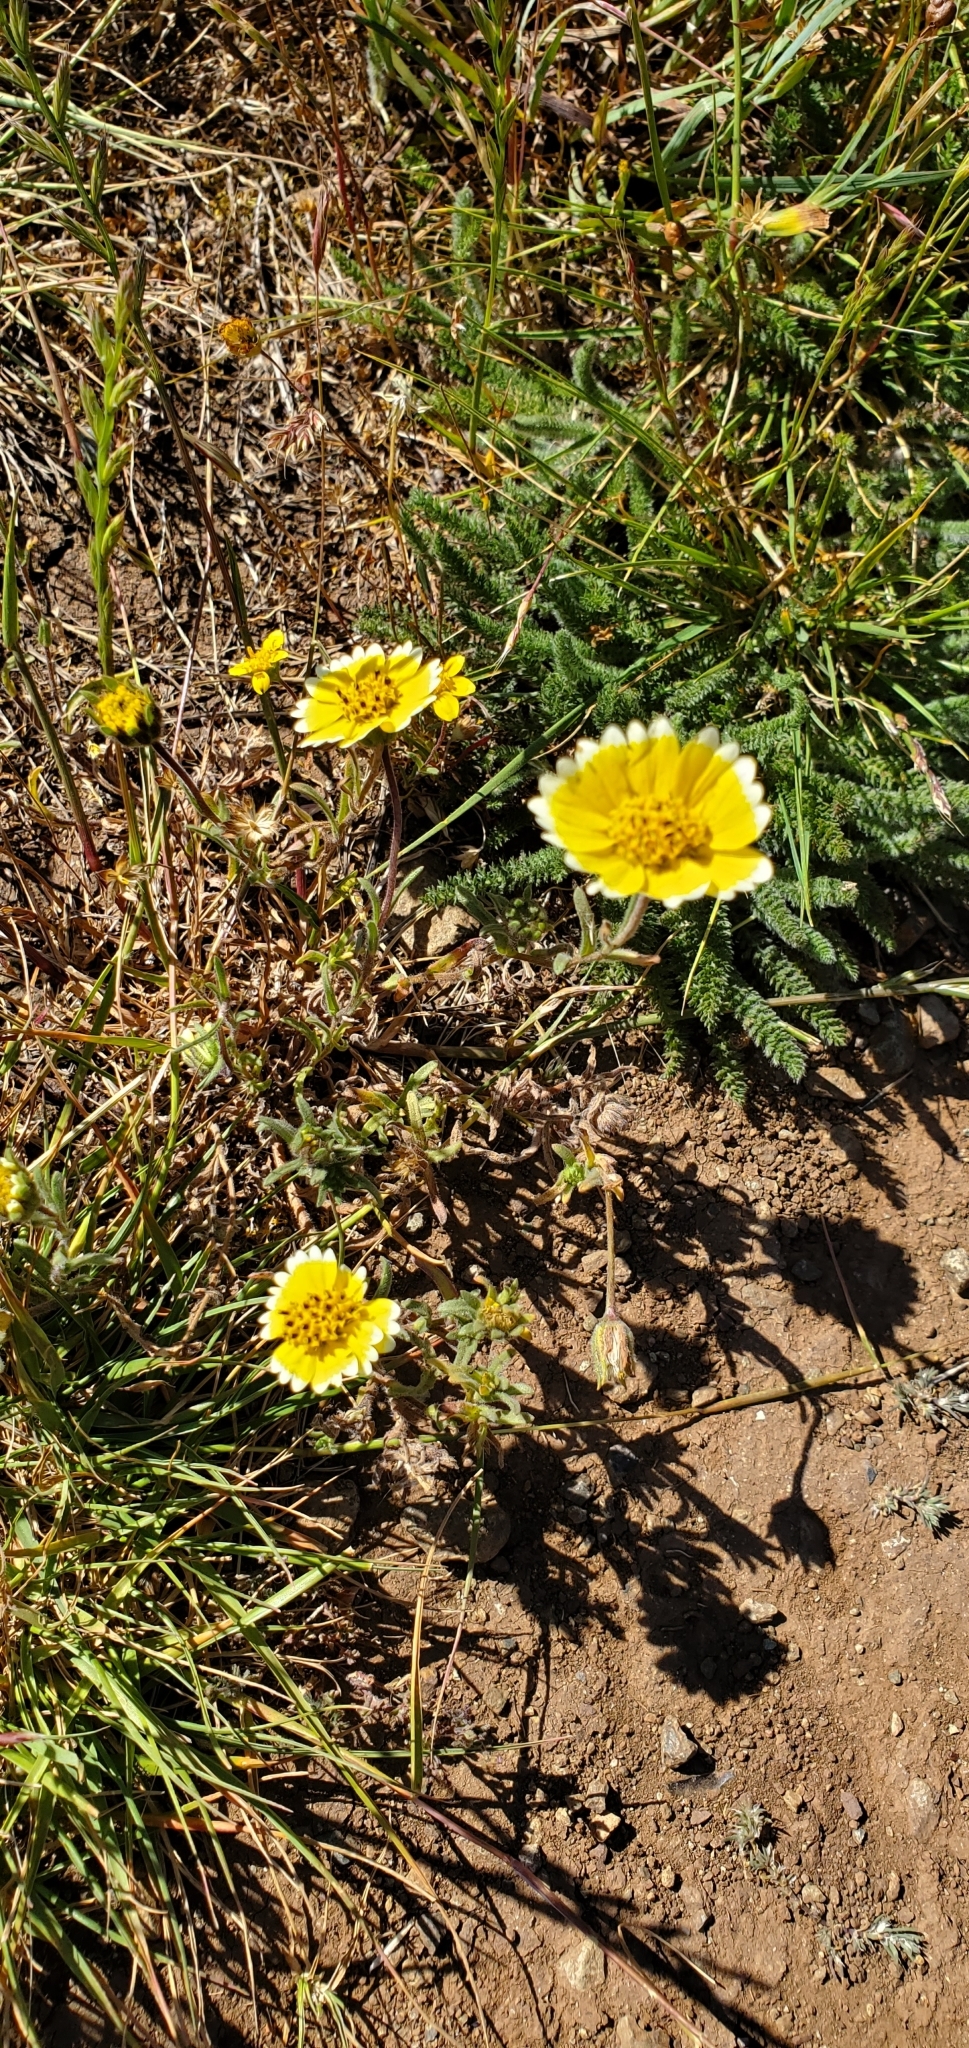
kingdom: Plantae
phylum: Tracheophyta
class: Magnoliopsida
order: Asterales
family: Asteraceae
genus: Layia
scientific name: Layia platyglossa
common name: Tidy-tips
